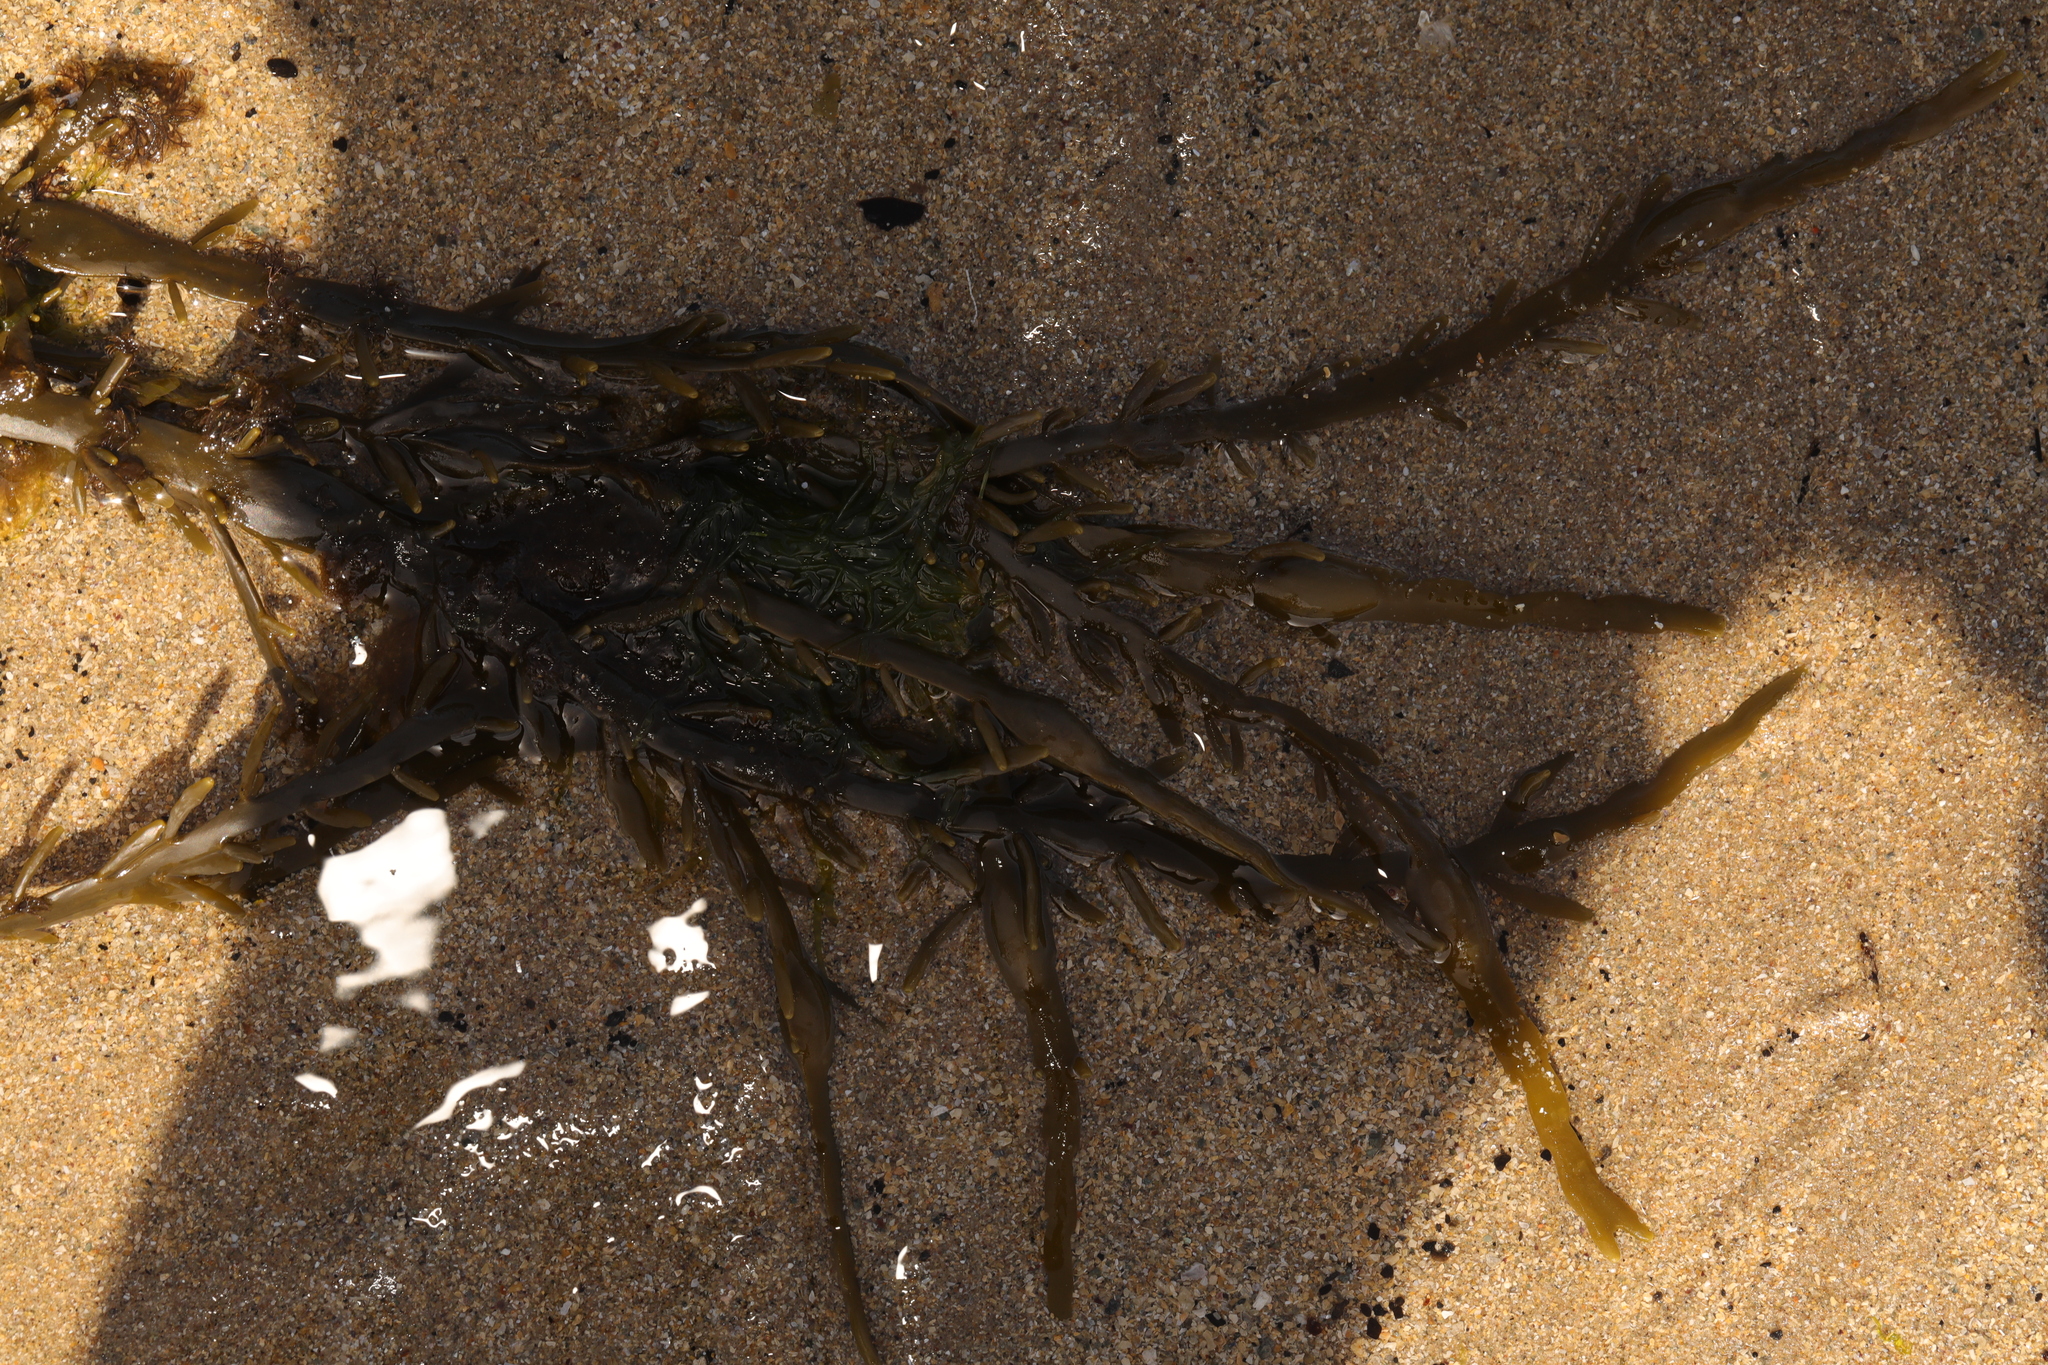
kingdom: Chromista
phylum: Ochrophyta
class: Phaeophyceae
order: Fucales
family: Fucaceae
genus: Ascophyllum
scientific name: Ascophyllum nodosum
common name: Knotted wrack
